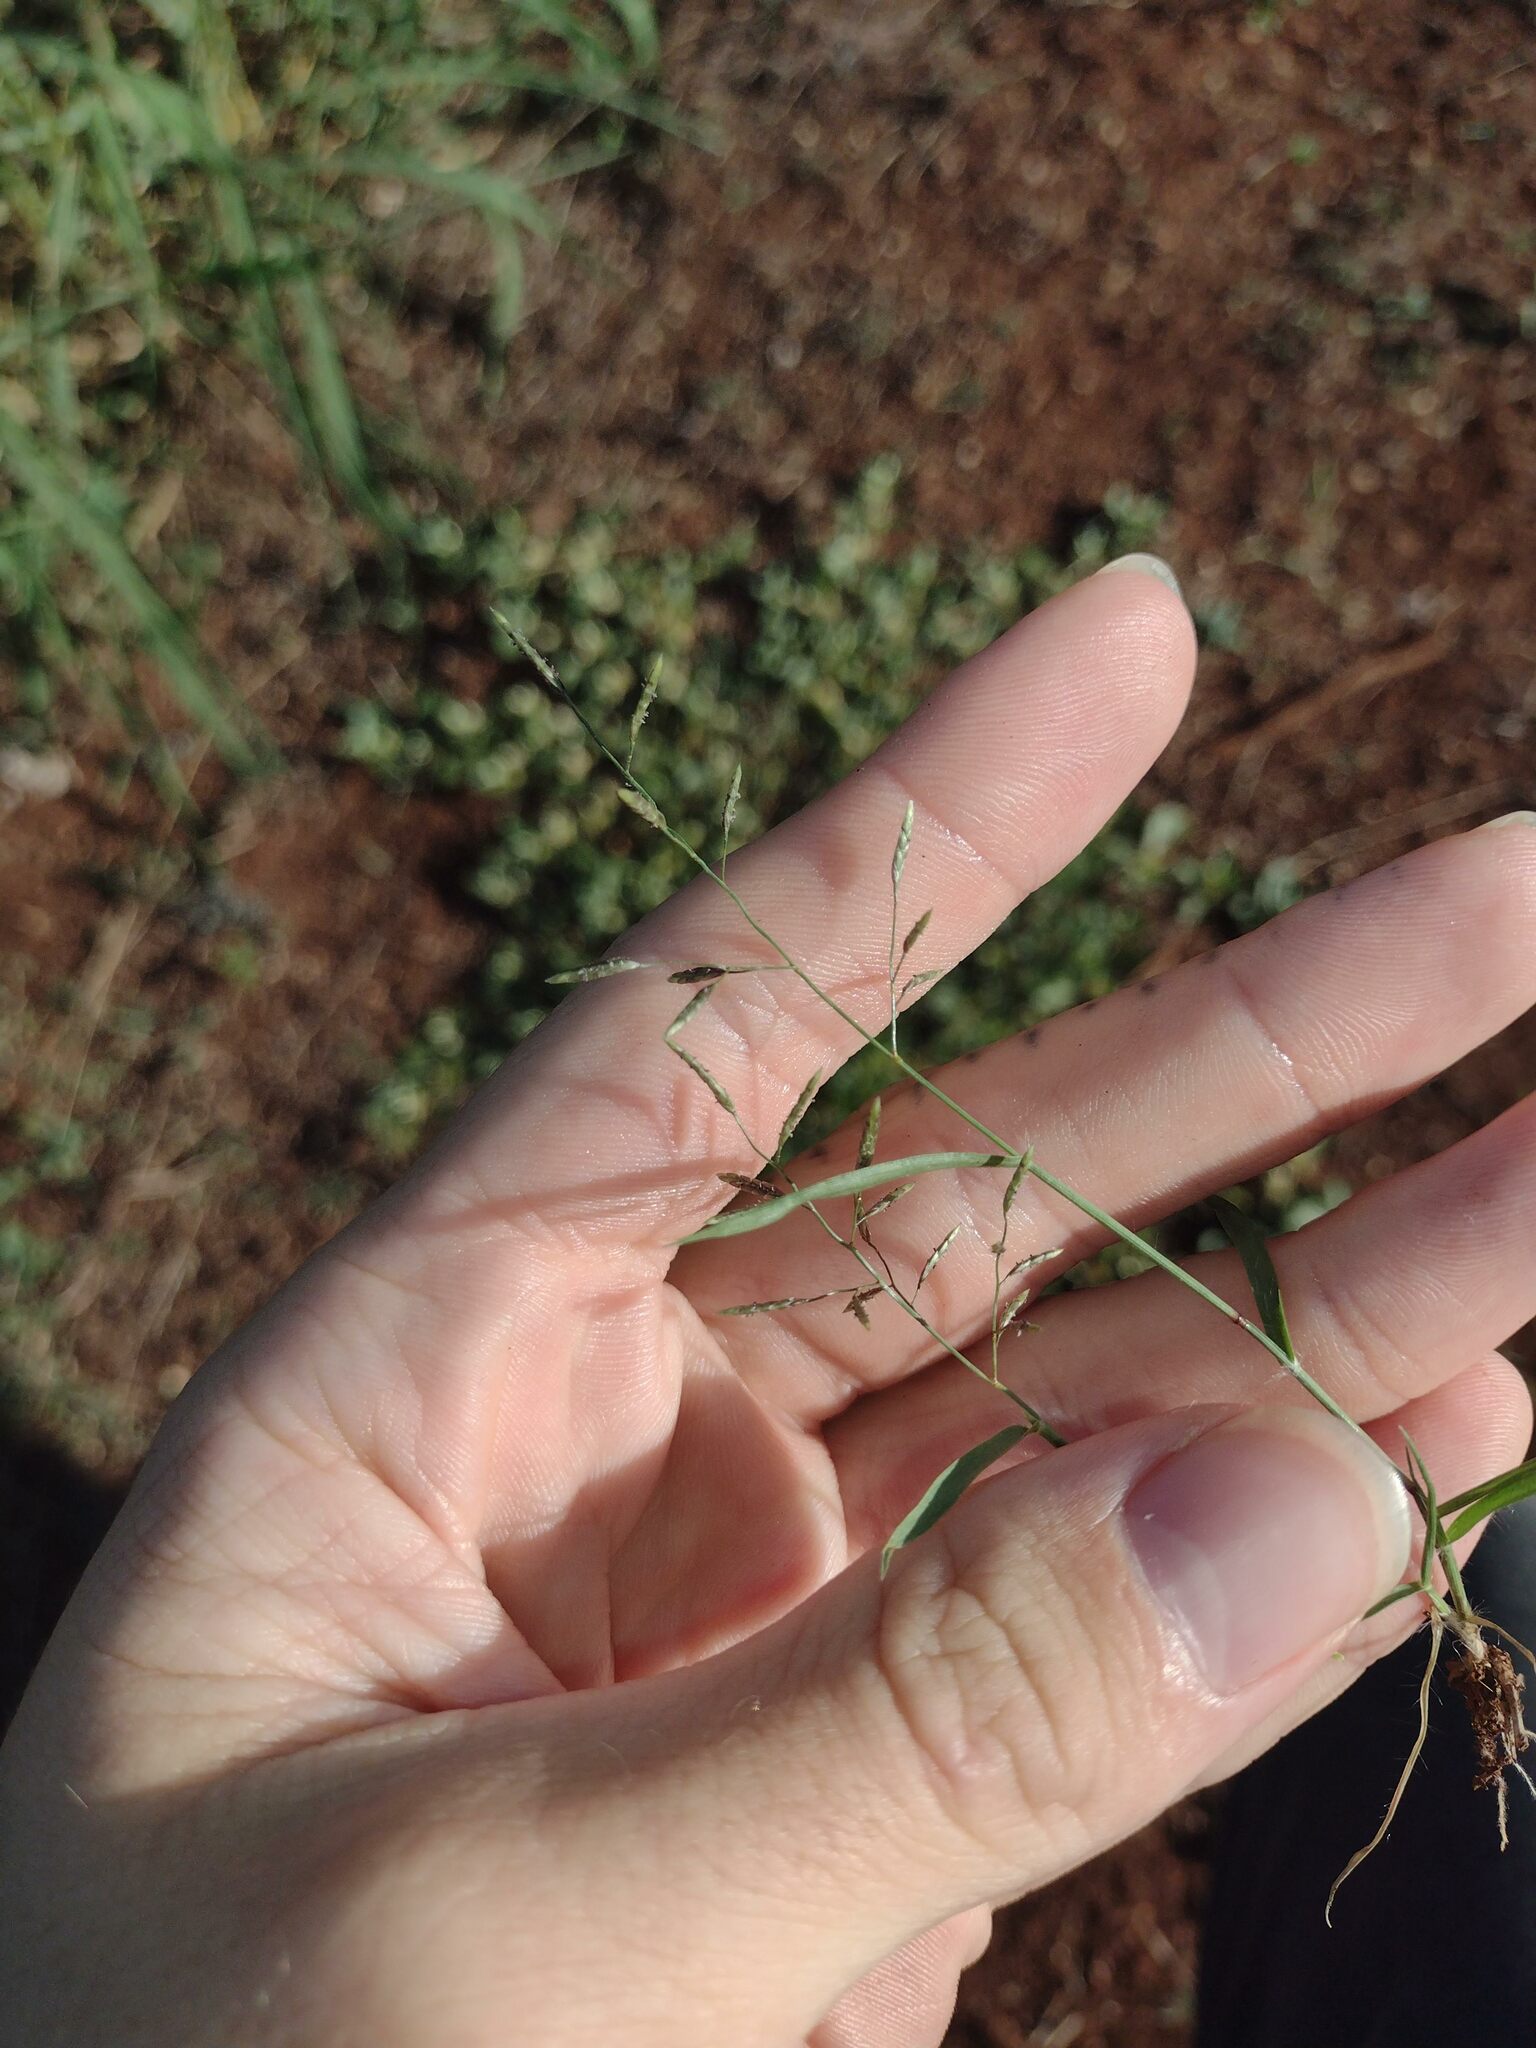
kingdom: Plantae
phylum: Tracheophyta
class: Liliopsida
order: Poales
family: Poaceae
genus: Eragrostis
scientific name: Eragrostis barrelieri
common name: Mediterranean lovegrass
